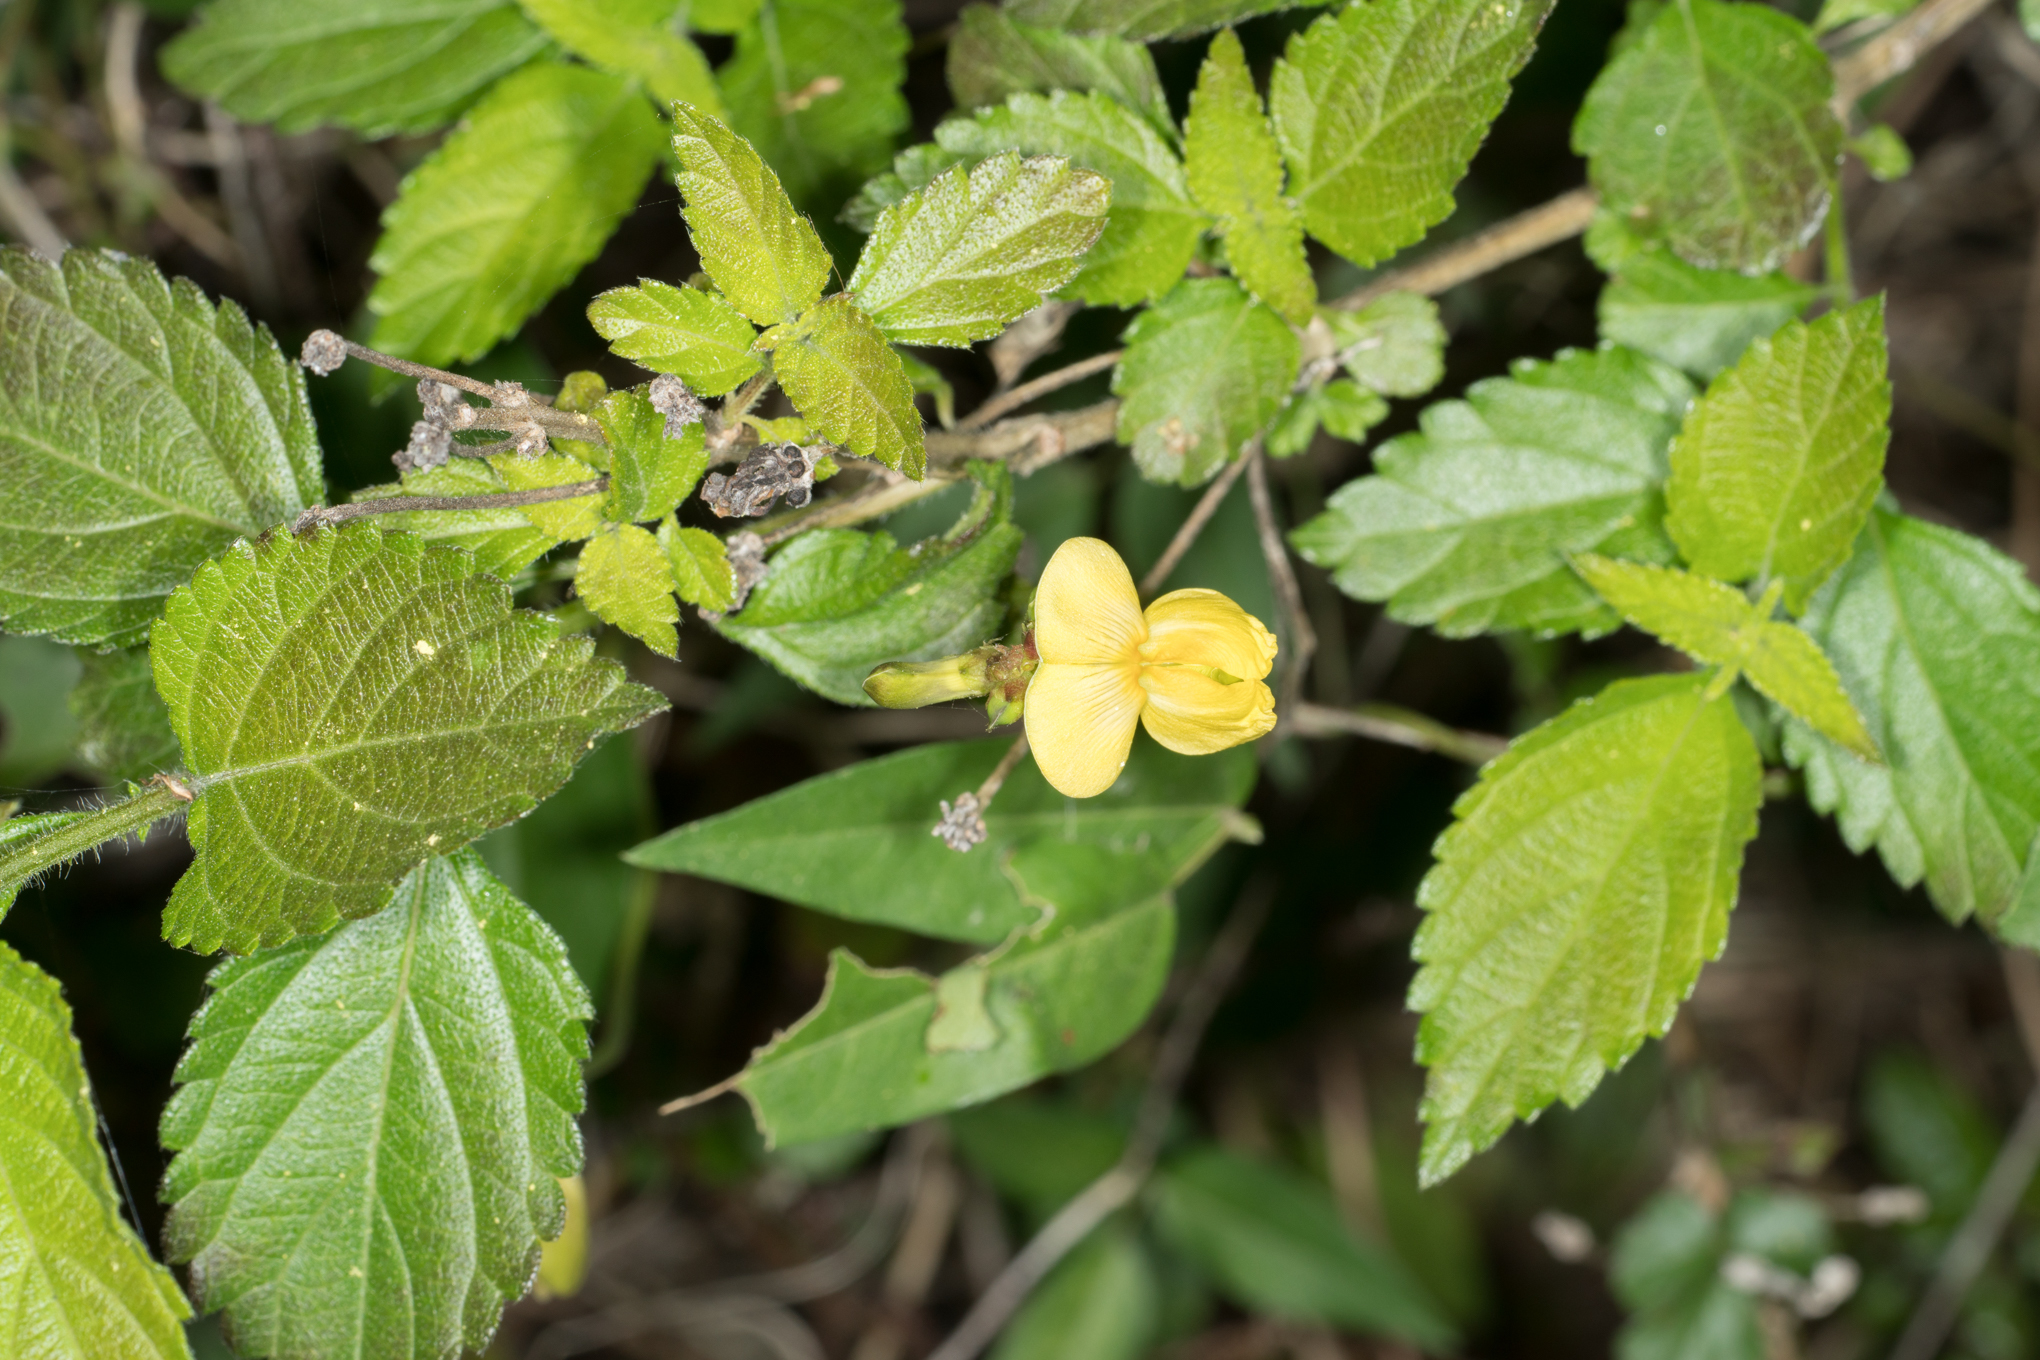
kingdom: Plantae
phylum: Tracheophyta
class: Magnoliopsida
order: Fabales
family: Fabaceae
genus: Vigna
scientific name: Vigna luteola
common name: Hairypod cowpea
